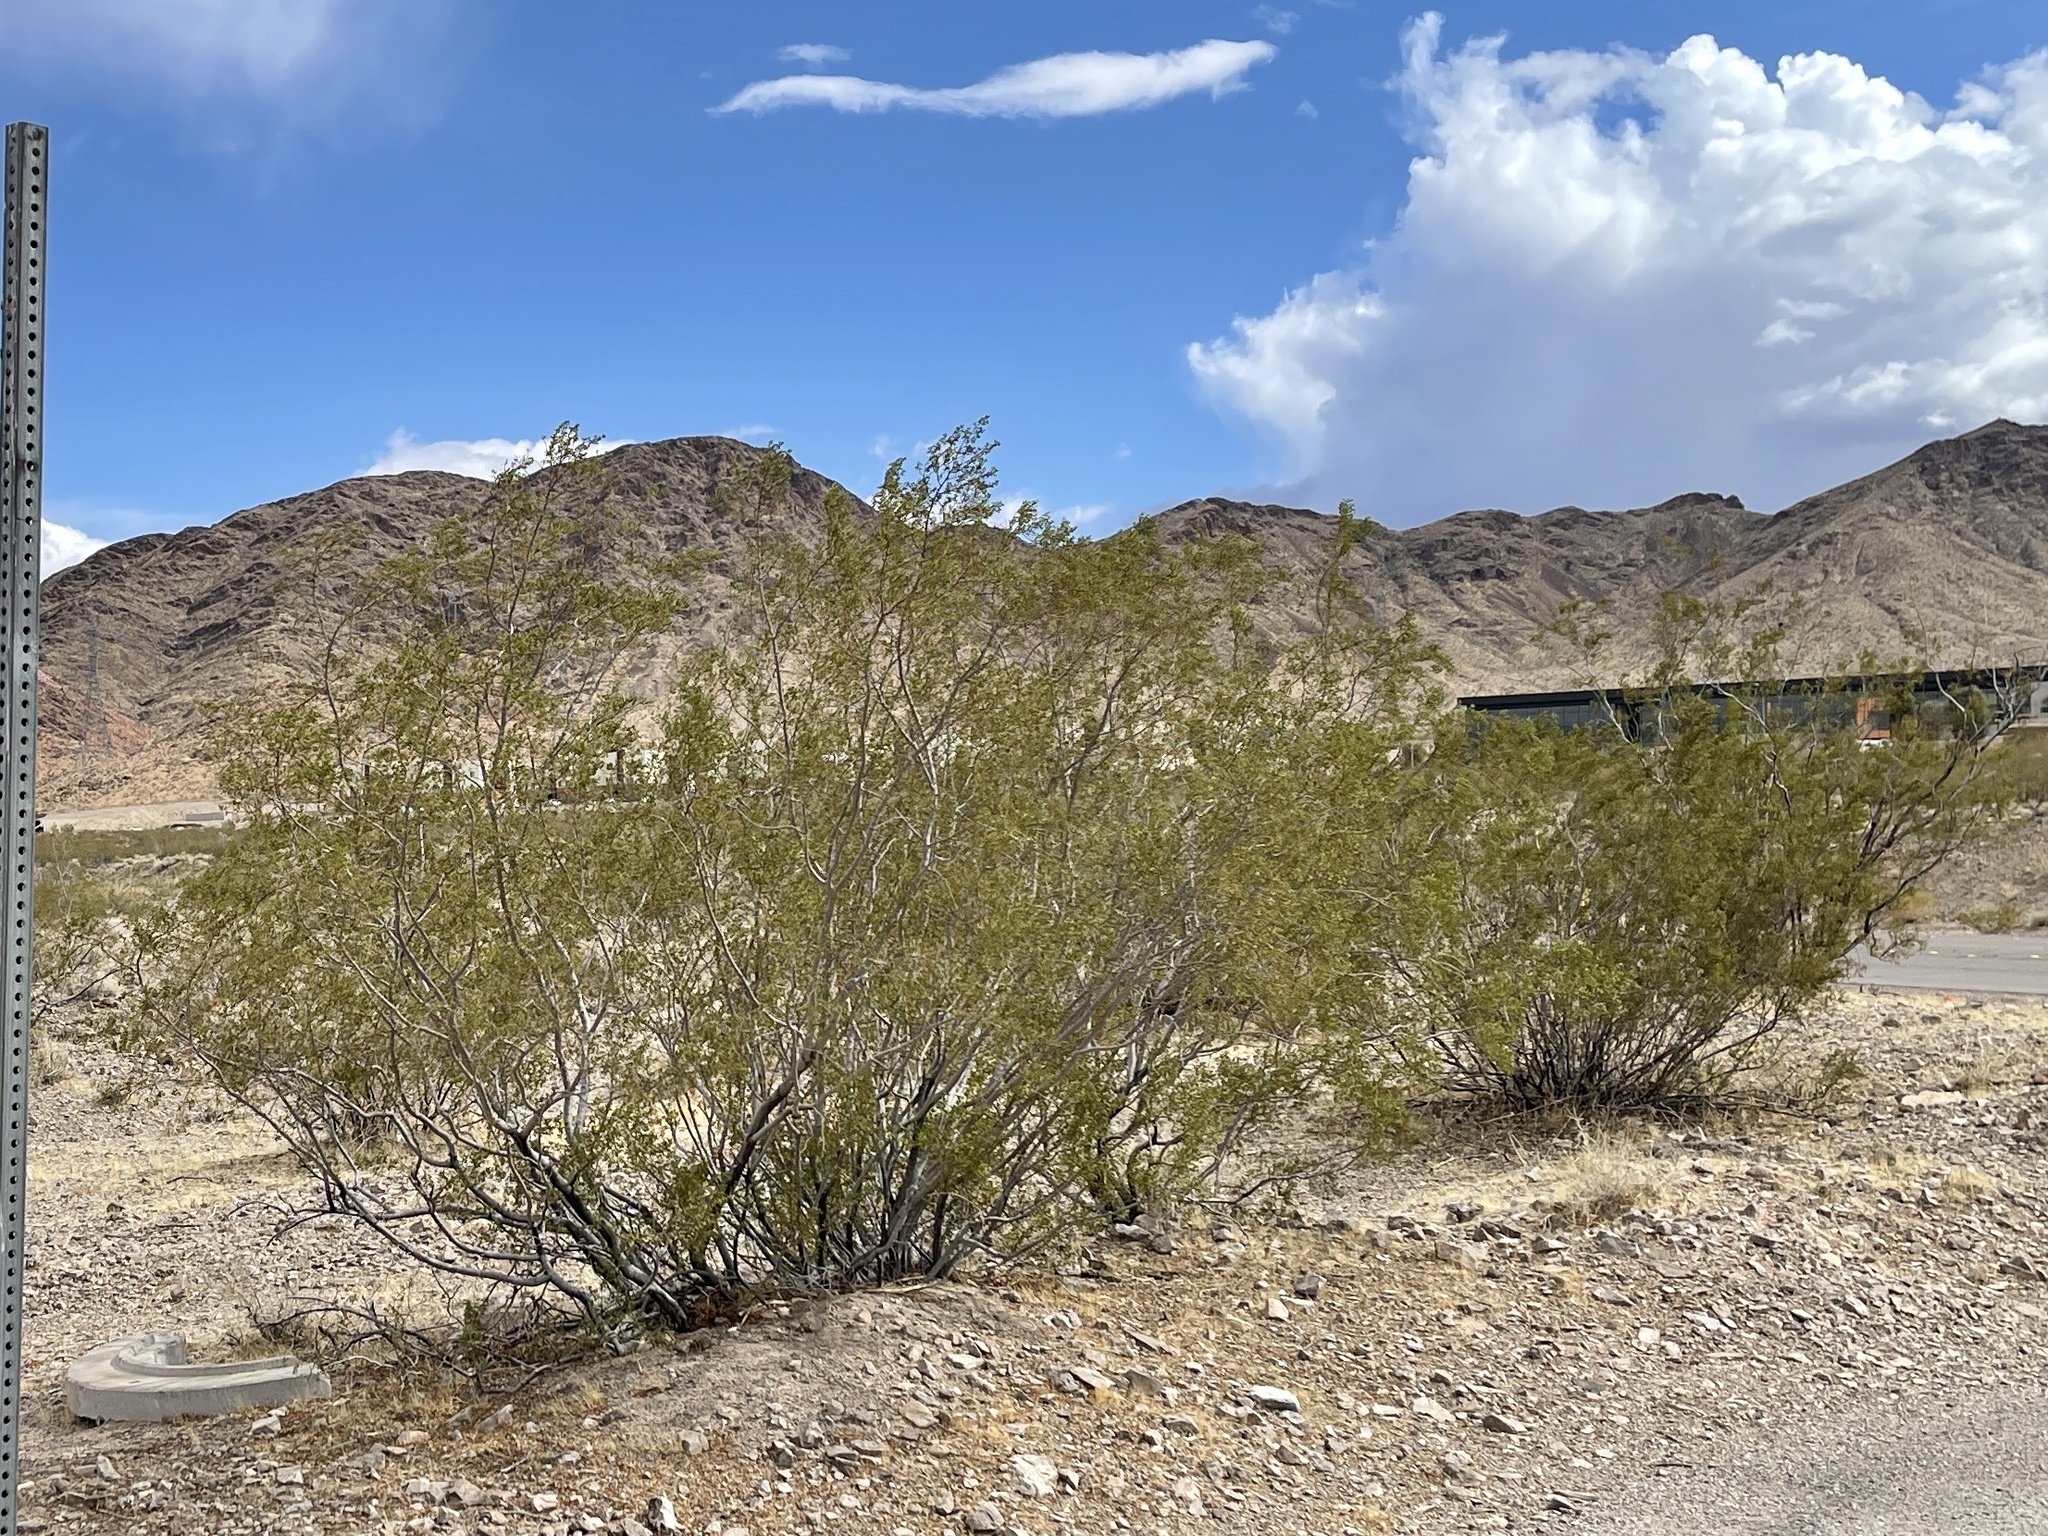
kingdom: Plantae
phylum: Tracheophyta
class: Magnoliopsida
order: Zygophyllales
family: Zygophyllaceae
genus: Larrea
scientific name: Larrea tridentata
